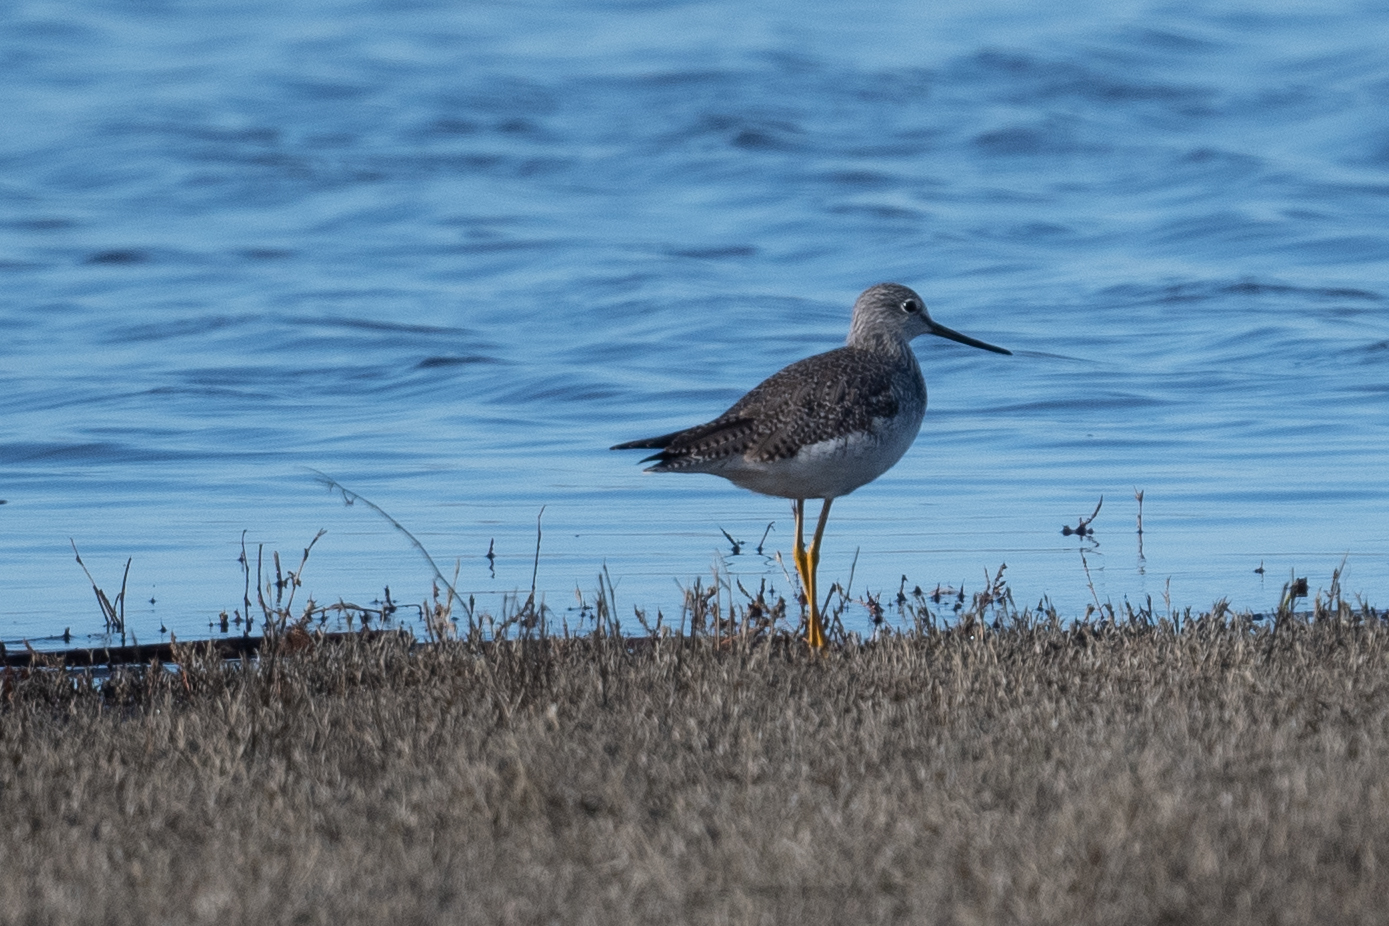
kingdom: Animalia
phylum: Chordata
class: Aves
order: Charadriiformes
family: Scolopacidae
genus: Tringa
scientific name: Tringa melanoleuca
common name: Greater yellowlegs
